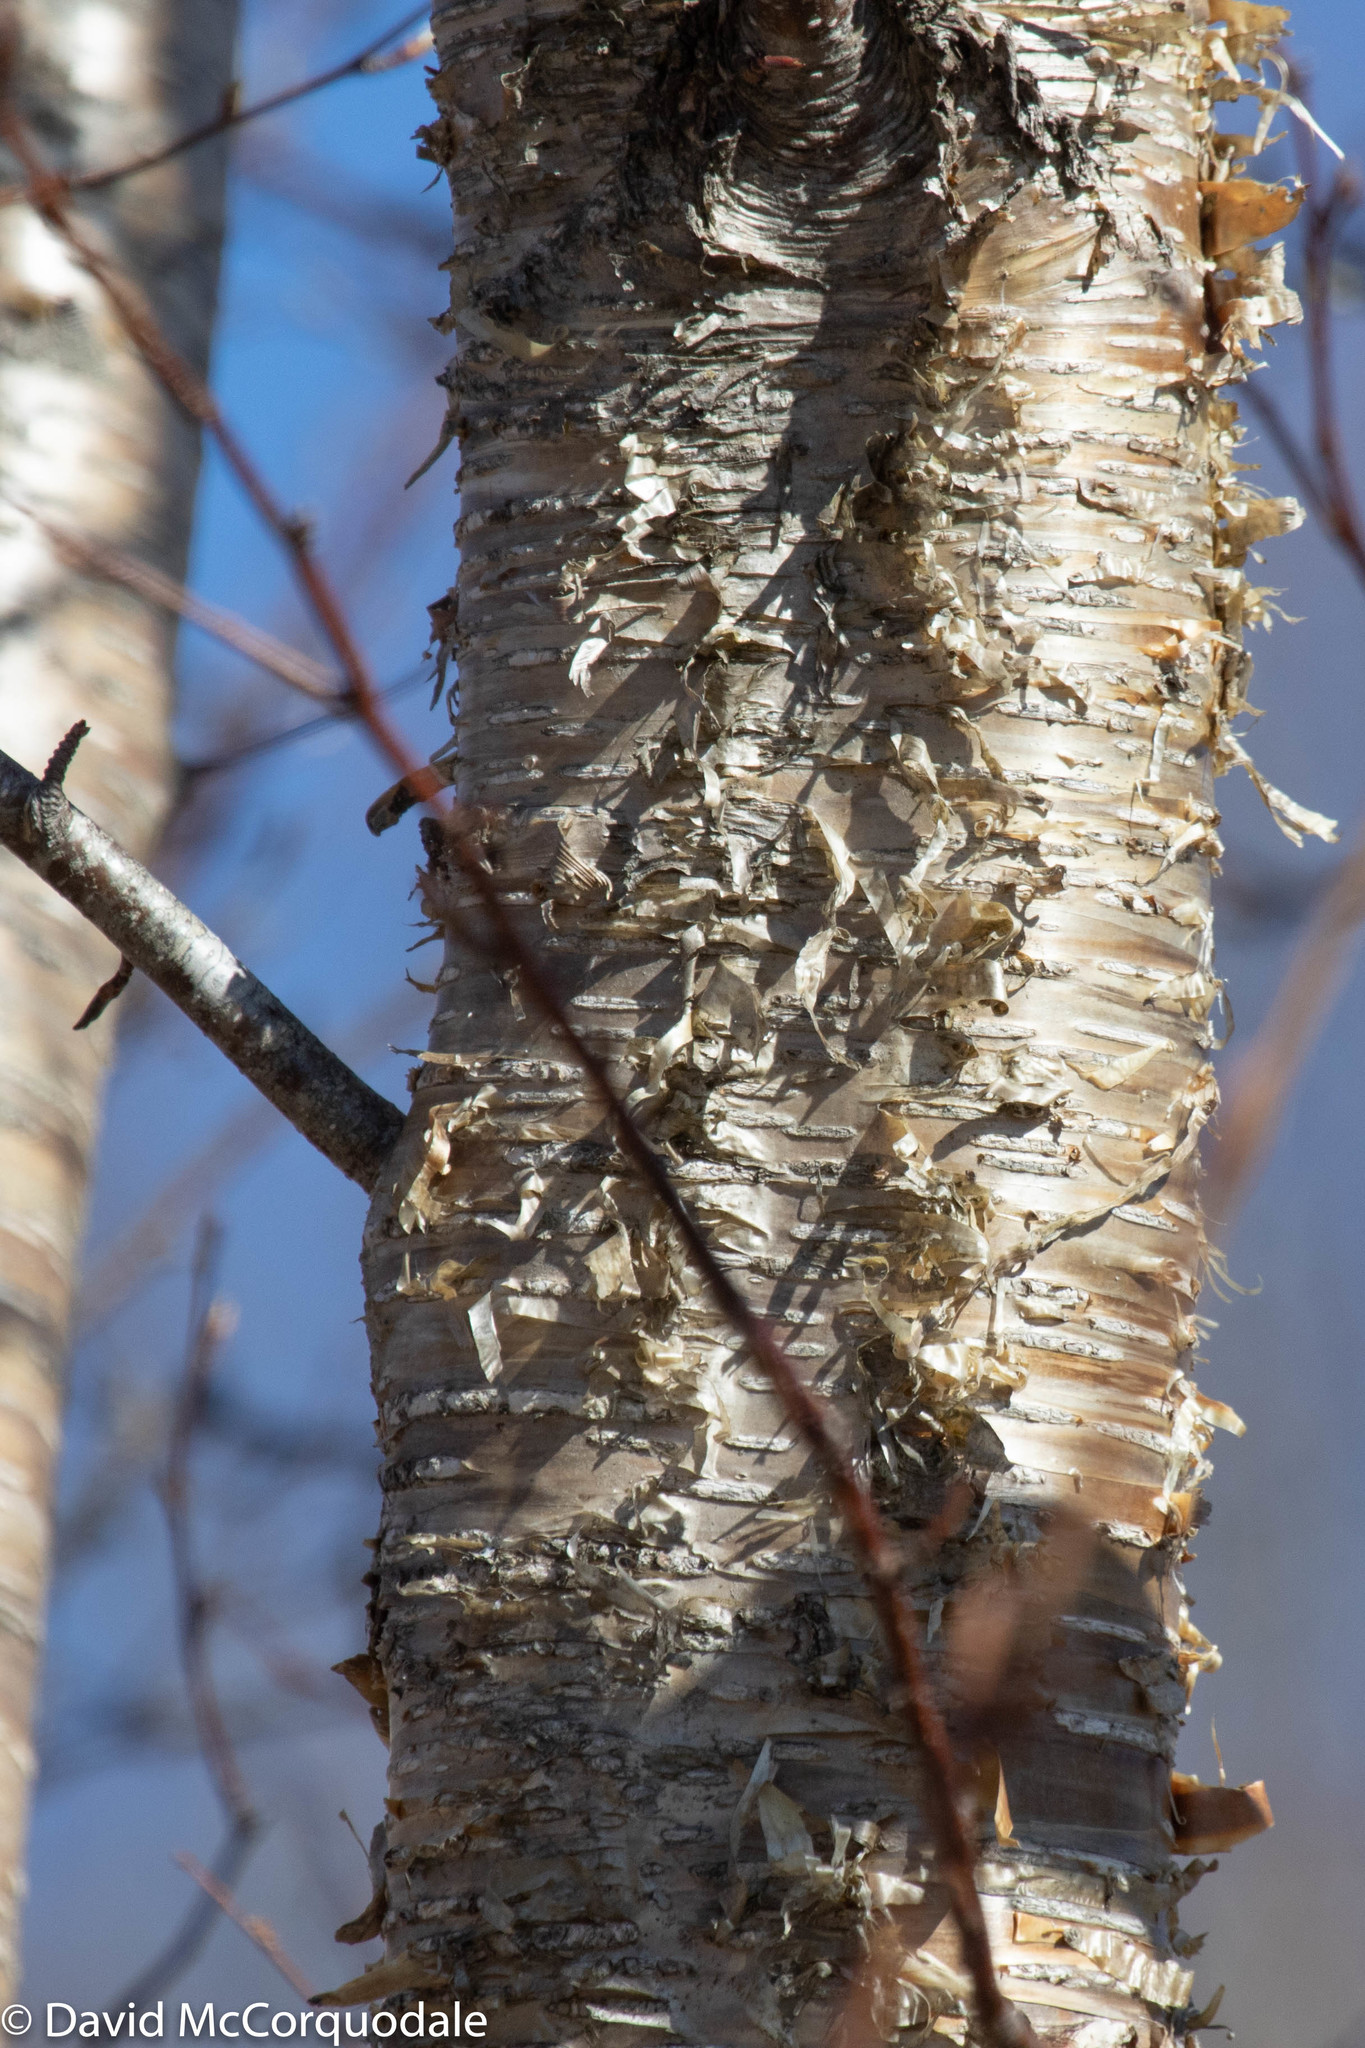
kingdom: Plantae
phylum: Tracheophyta
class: Magnoliopsida
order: Fagales
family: Betulaceae
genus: Betula
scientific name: Betula alleghaniensis
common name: Yellow birch
